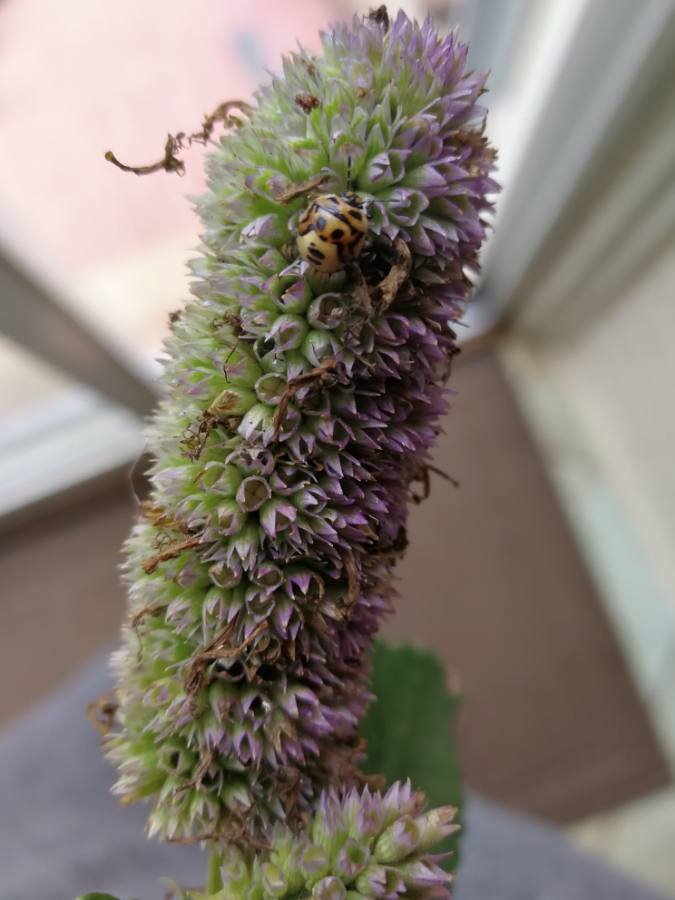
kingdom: Animalia
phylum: Arthropoda
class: Insecta
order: Hemiptera
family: Pentatomidae
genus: Cosmopepla
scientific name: Cosmopepla lintneriana
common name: Twice-stabbed stink bug
